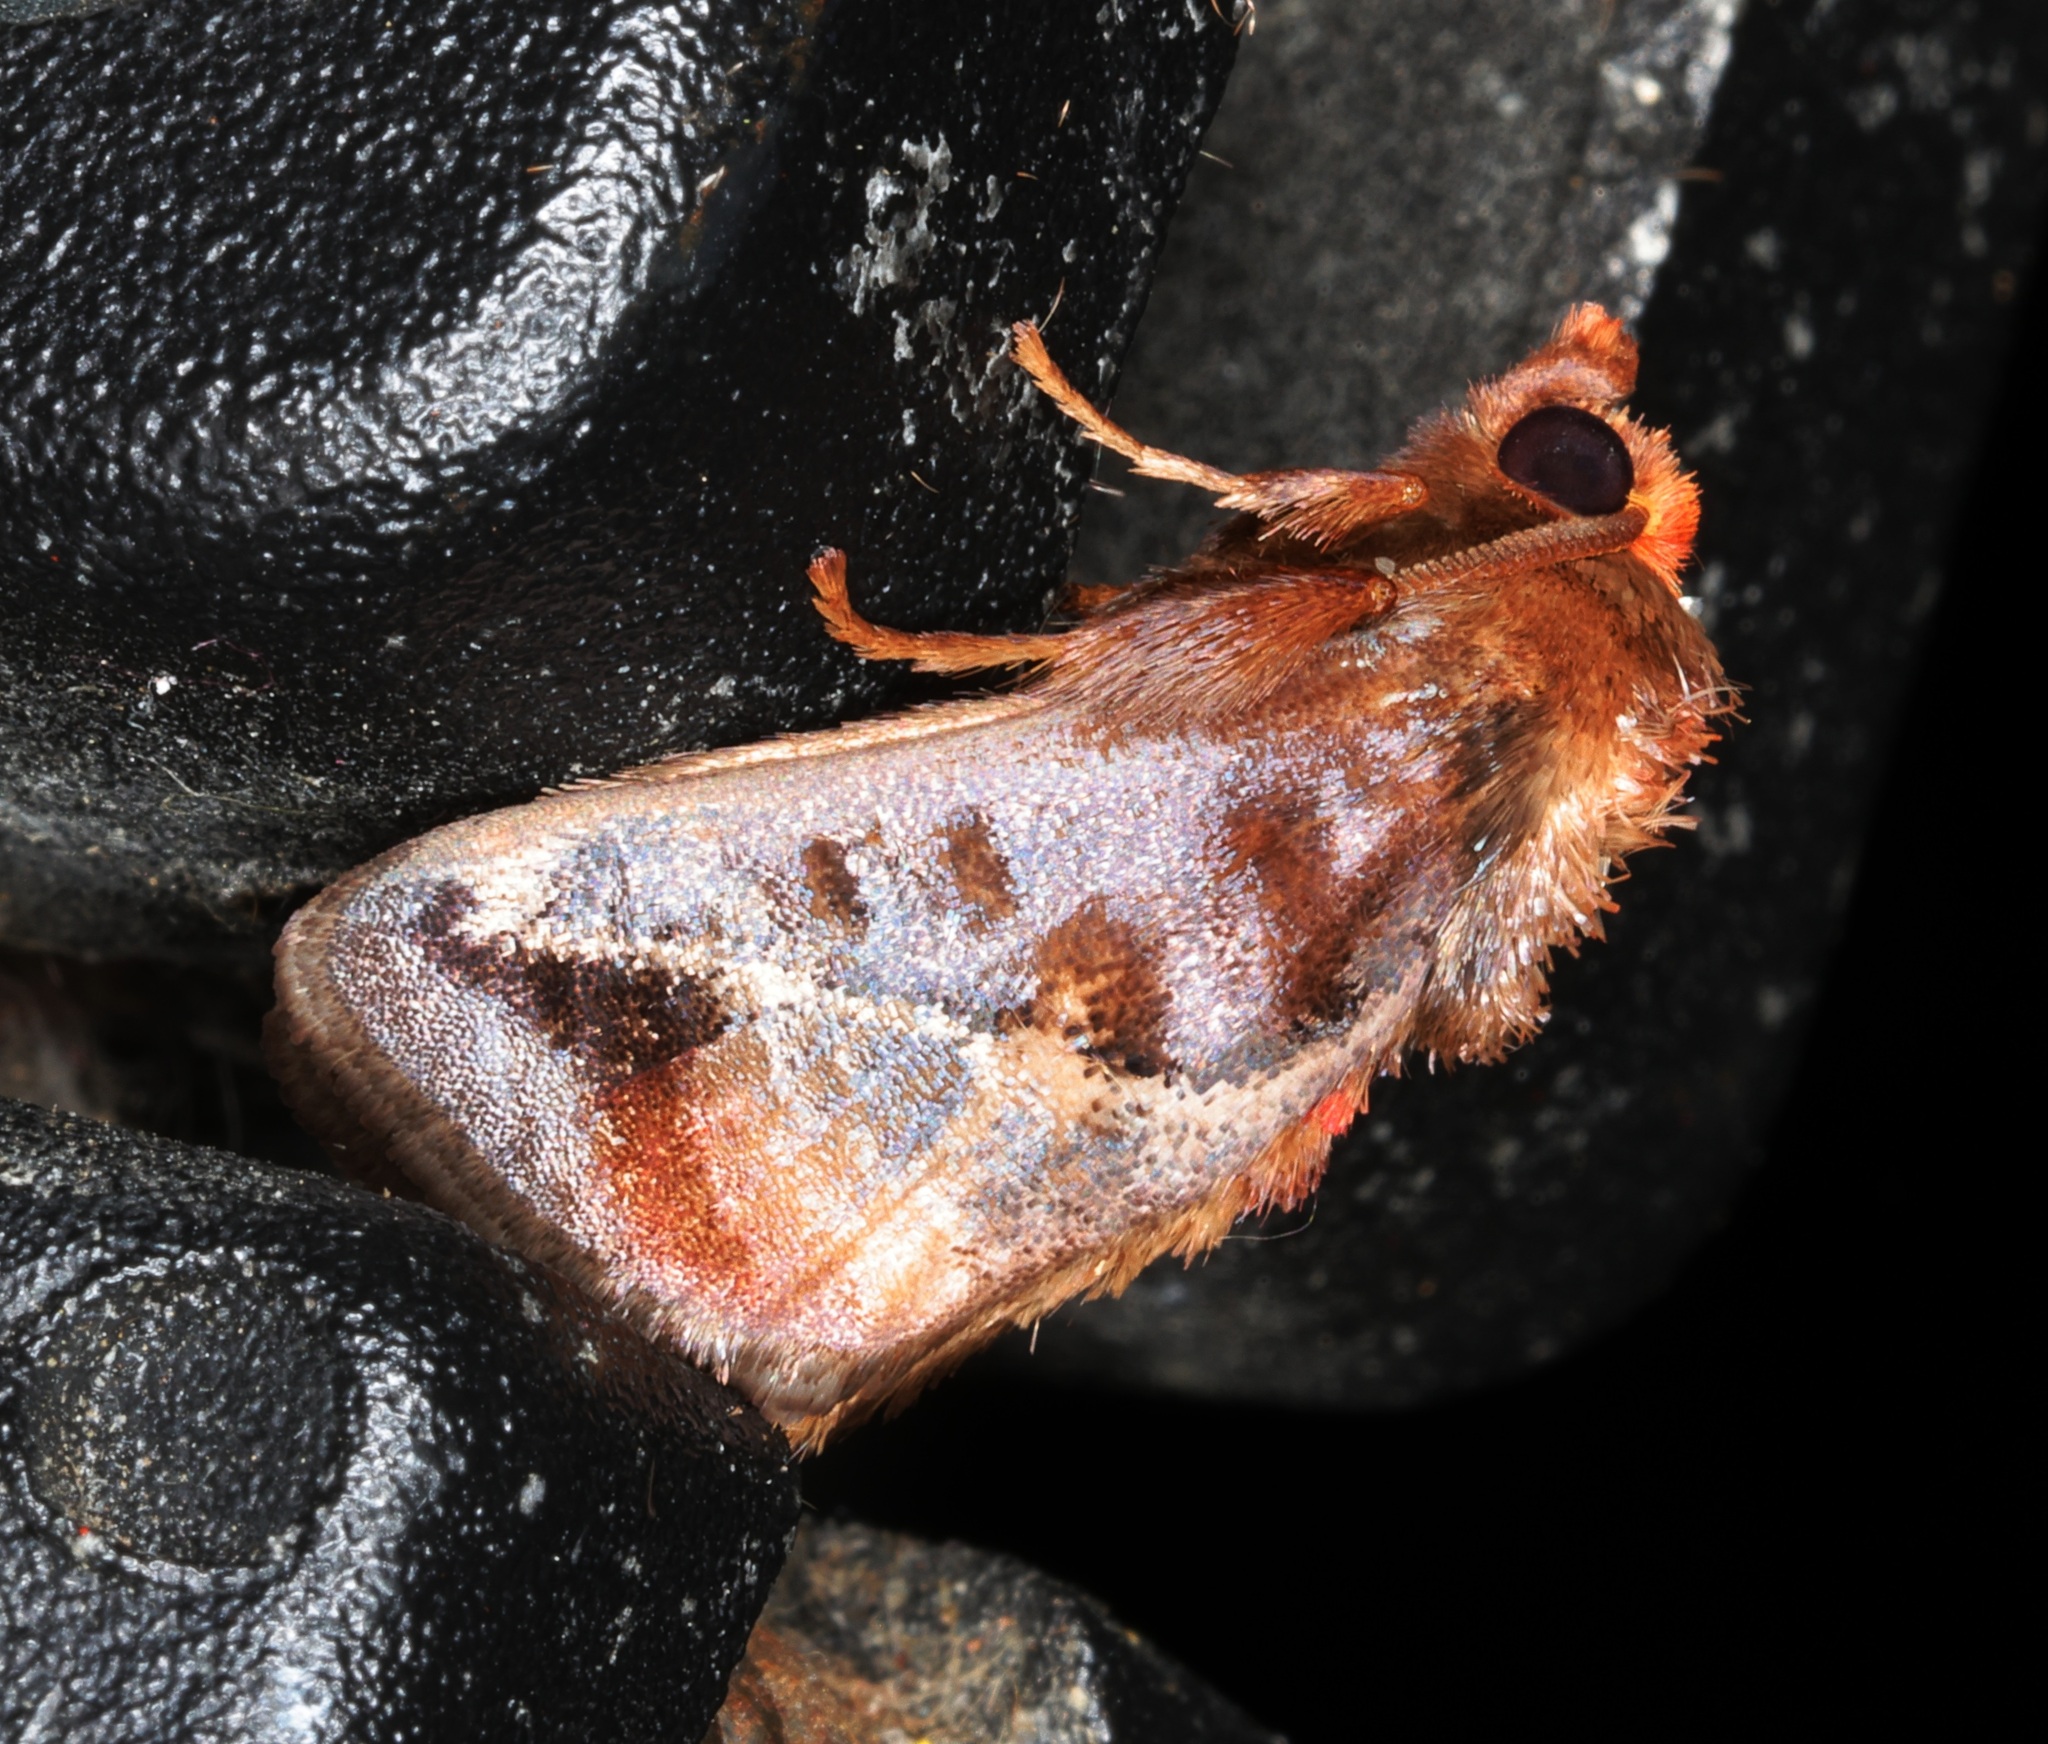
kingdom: Animalia
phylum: Arthropoda
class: Insecta
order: Lepidoptera
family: Limacodidae
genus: Vanlangia
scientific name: Vanlangia castanea
